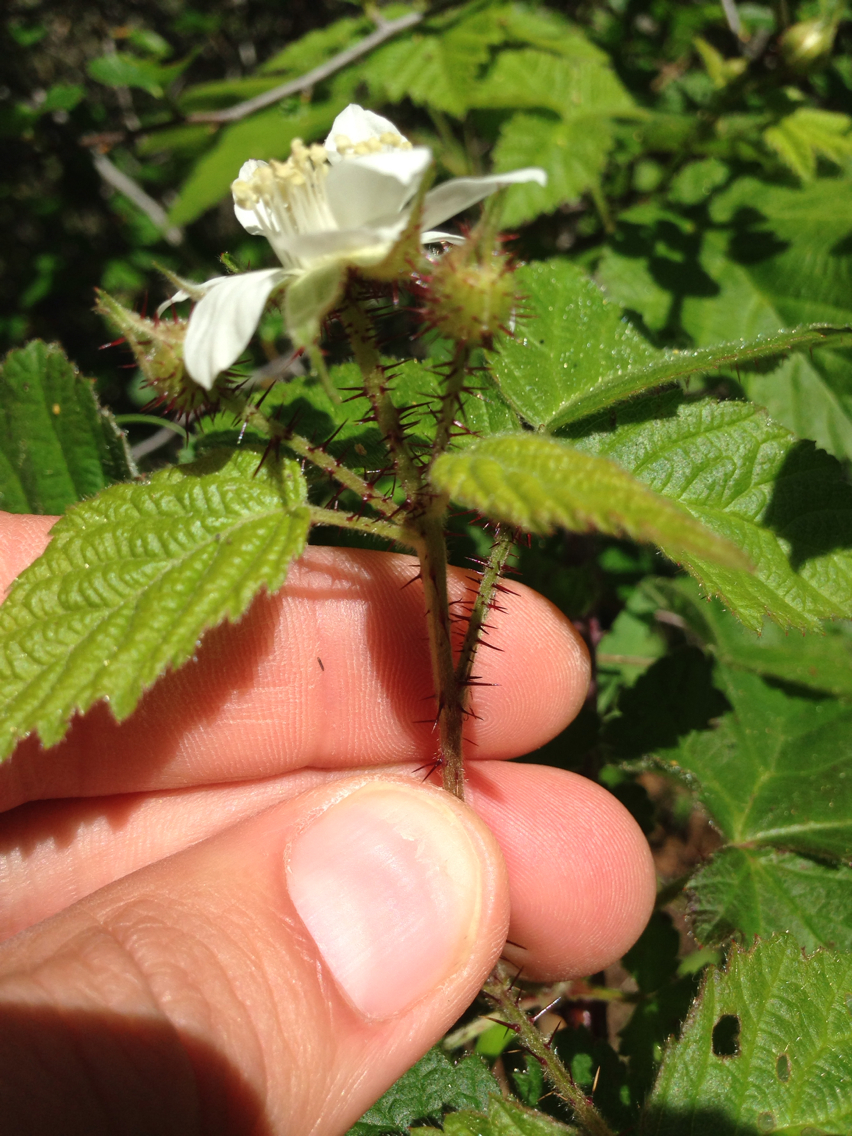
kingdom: Plantae
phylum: Tracheophyta
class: Magnoliopsida
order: Rosales
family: Rosaceae
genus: Rubus
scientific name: Rubus ursinus
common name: Pacific blackberry
